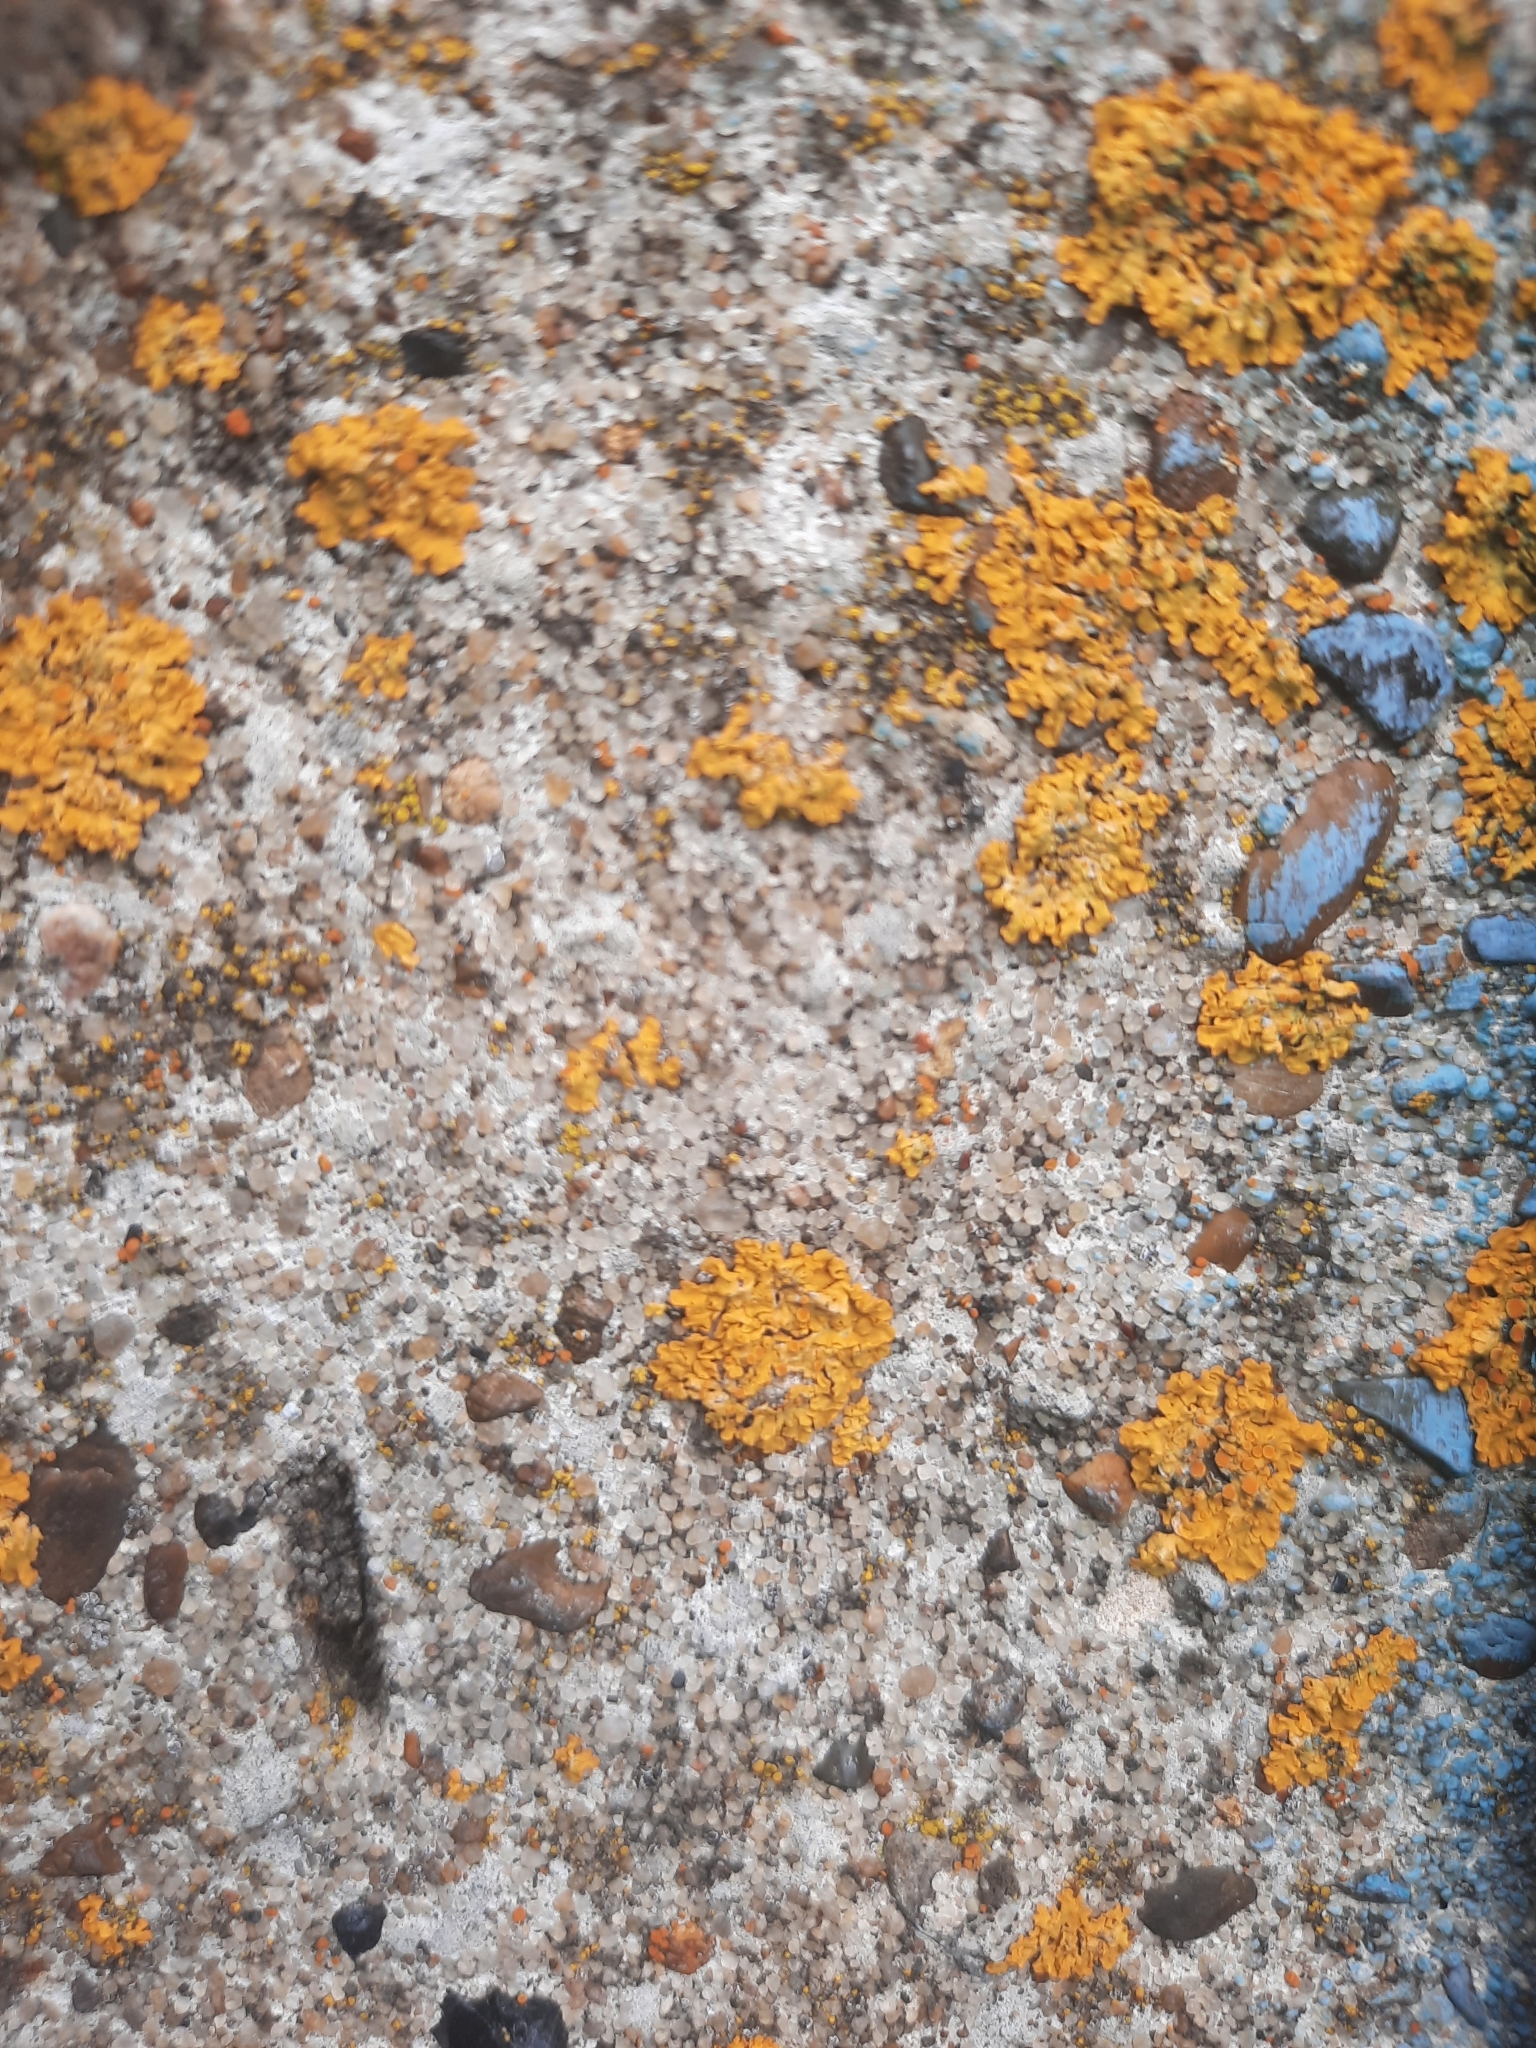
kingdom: Fungi
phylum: Ascomycota
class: Lecanoromycetes
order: Teloschistales
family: Teloschistaceae
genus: Xanthoria
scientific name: Xanthoria parietina
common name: Common orange lichen
